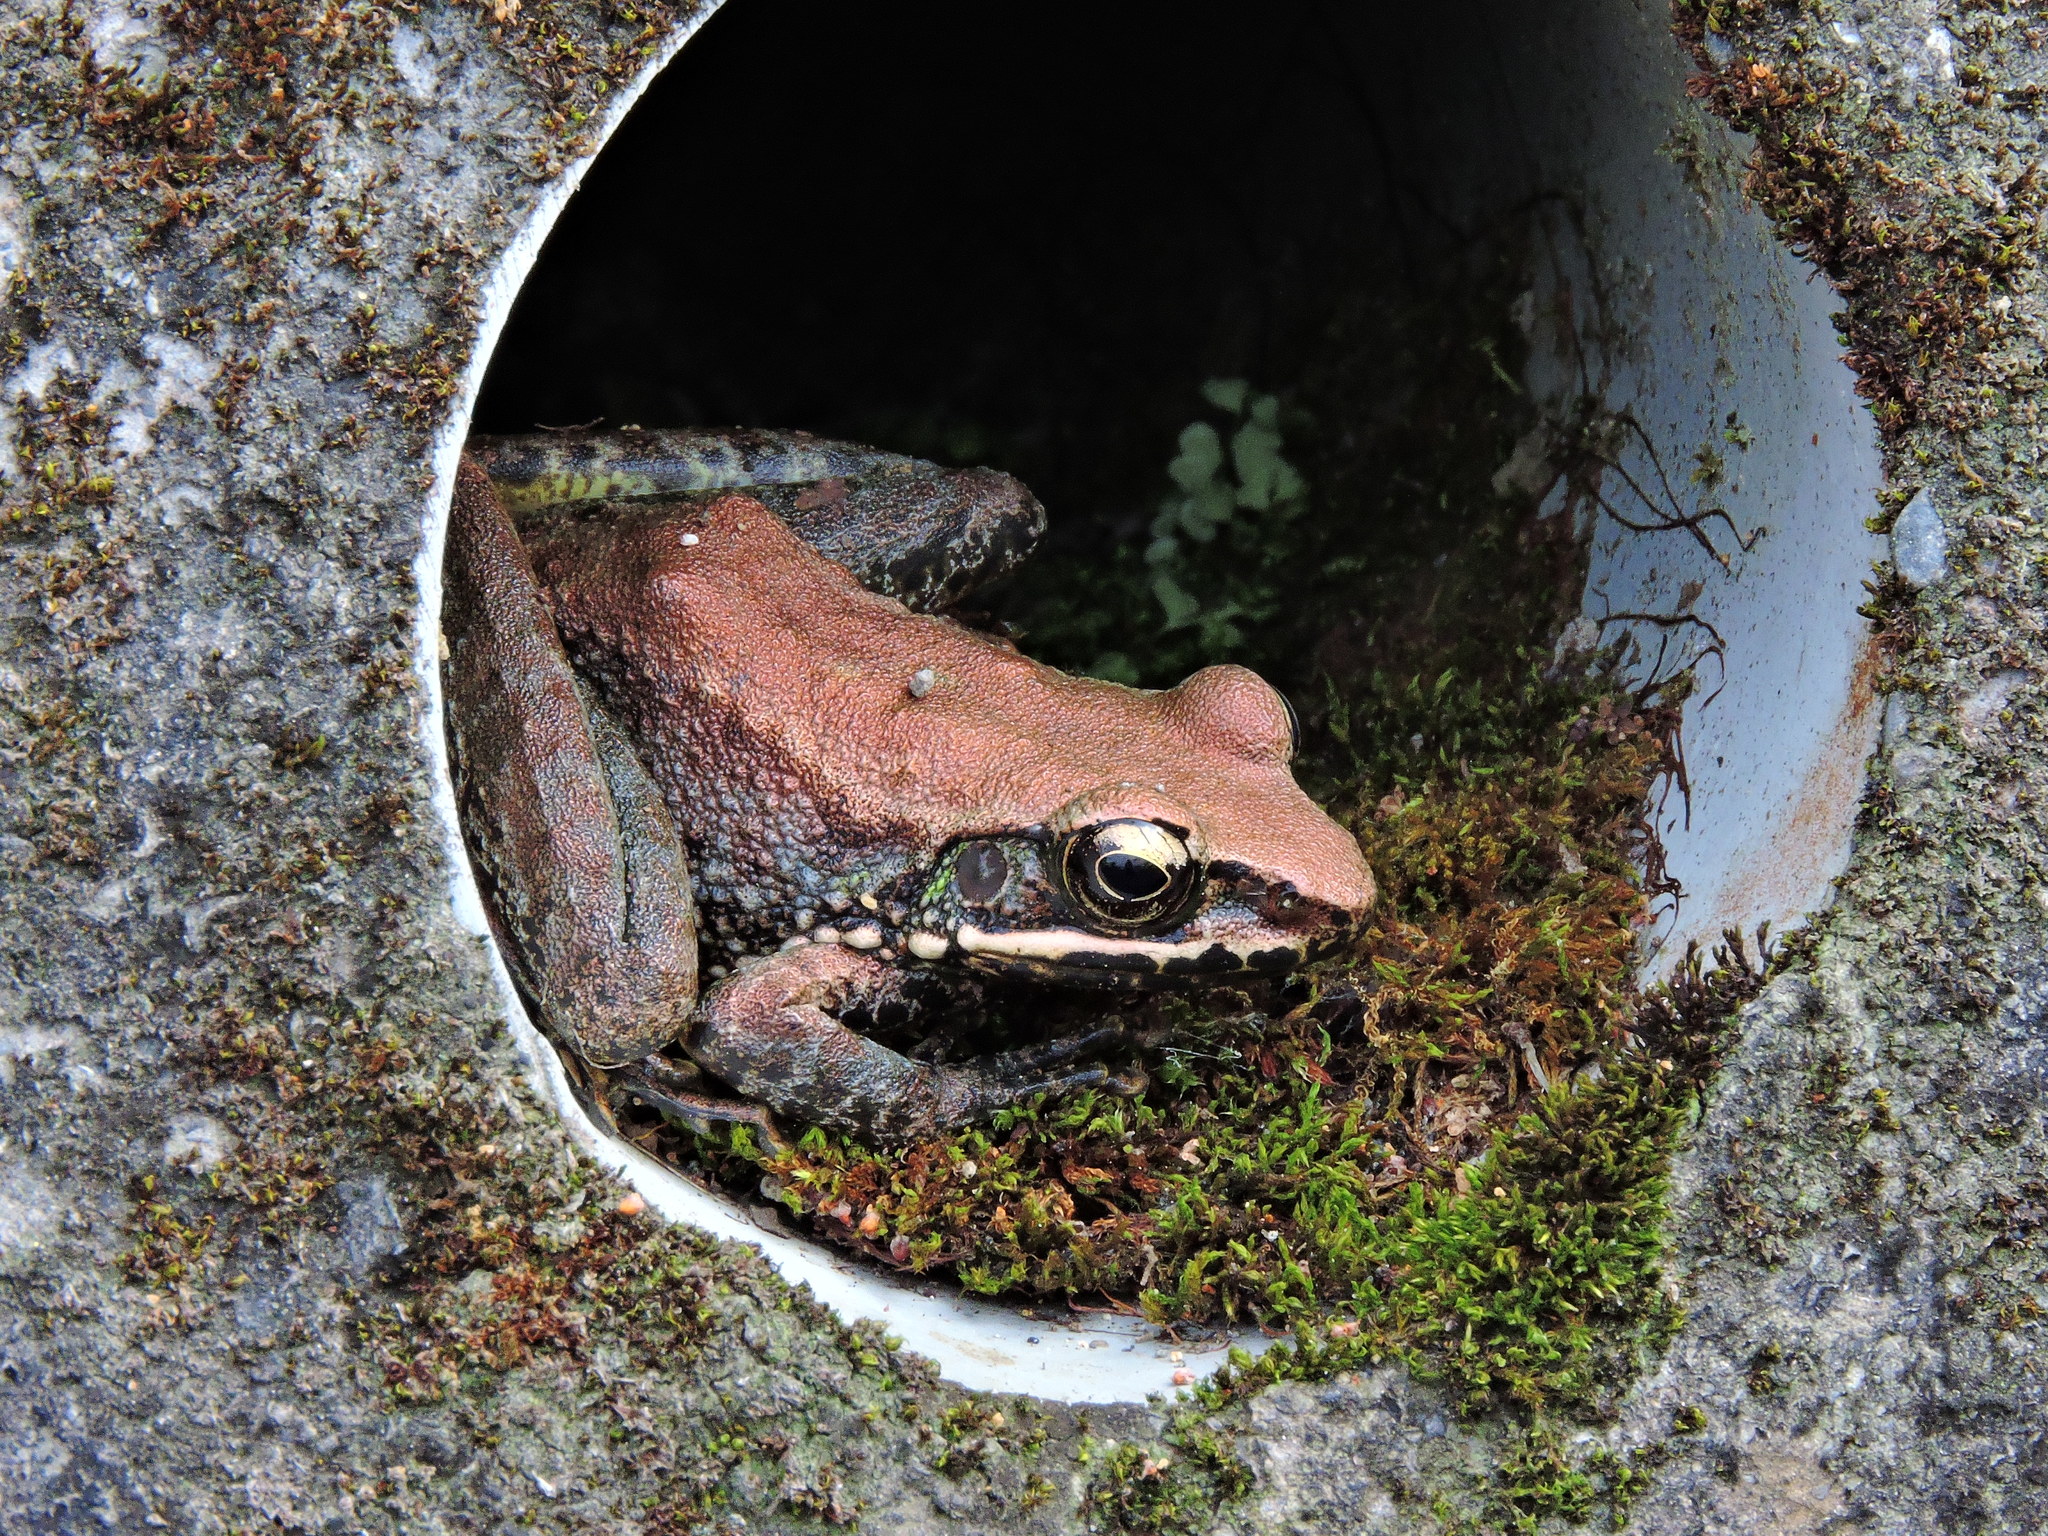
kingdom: Animalia
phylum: Chordata
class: Amphibia
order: Anura
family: Ranidae
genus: Odorrana
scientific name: Odorrana swinhoana
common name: Bangkimtsing frog
